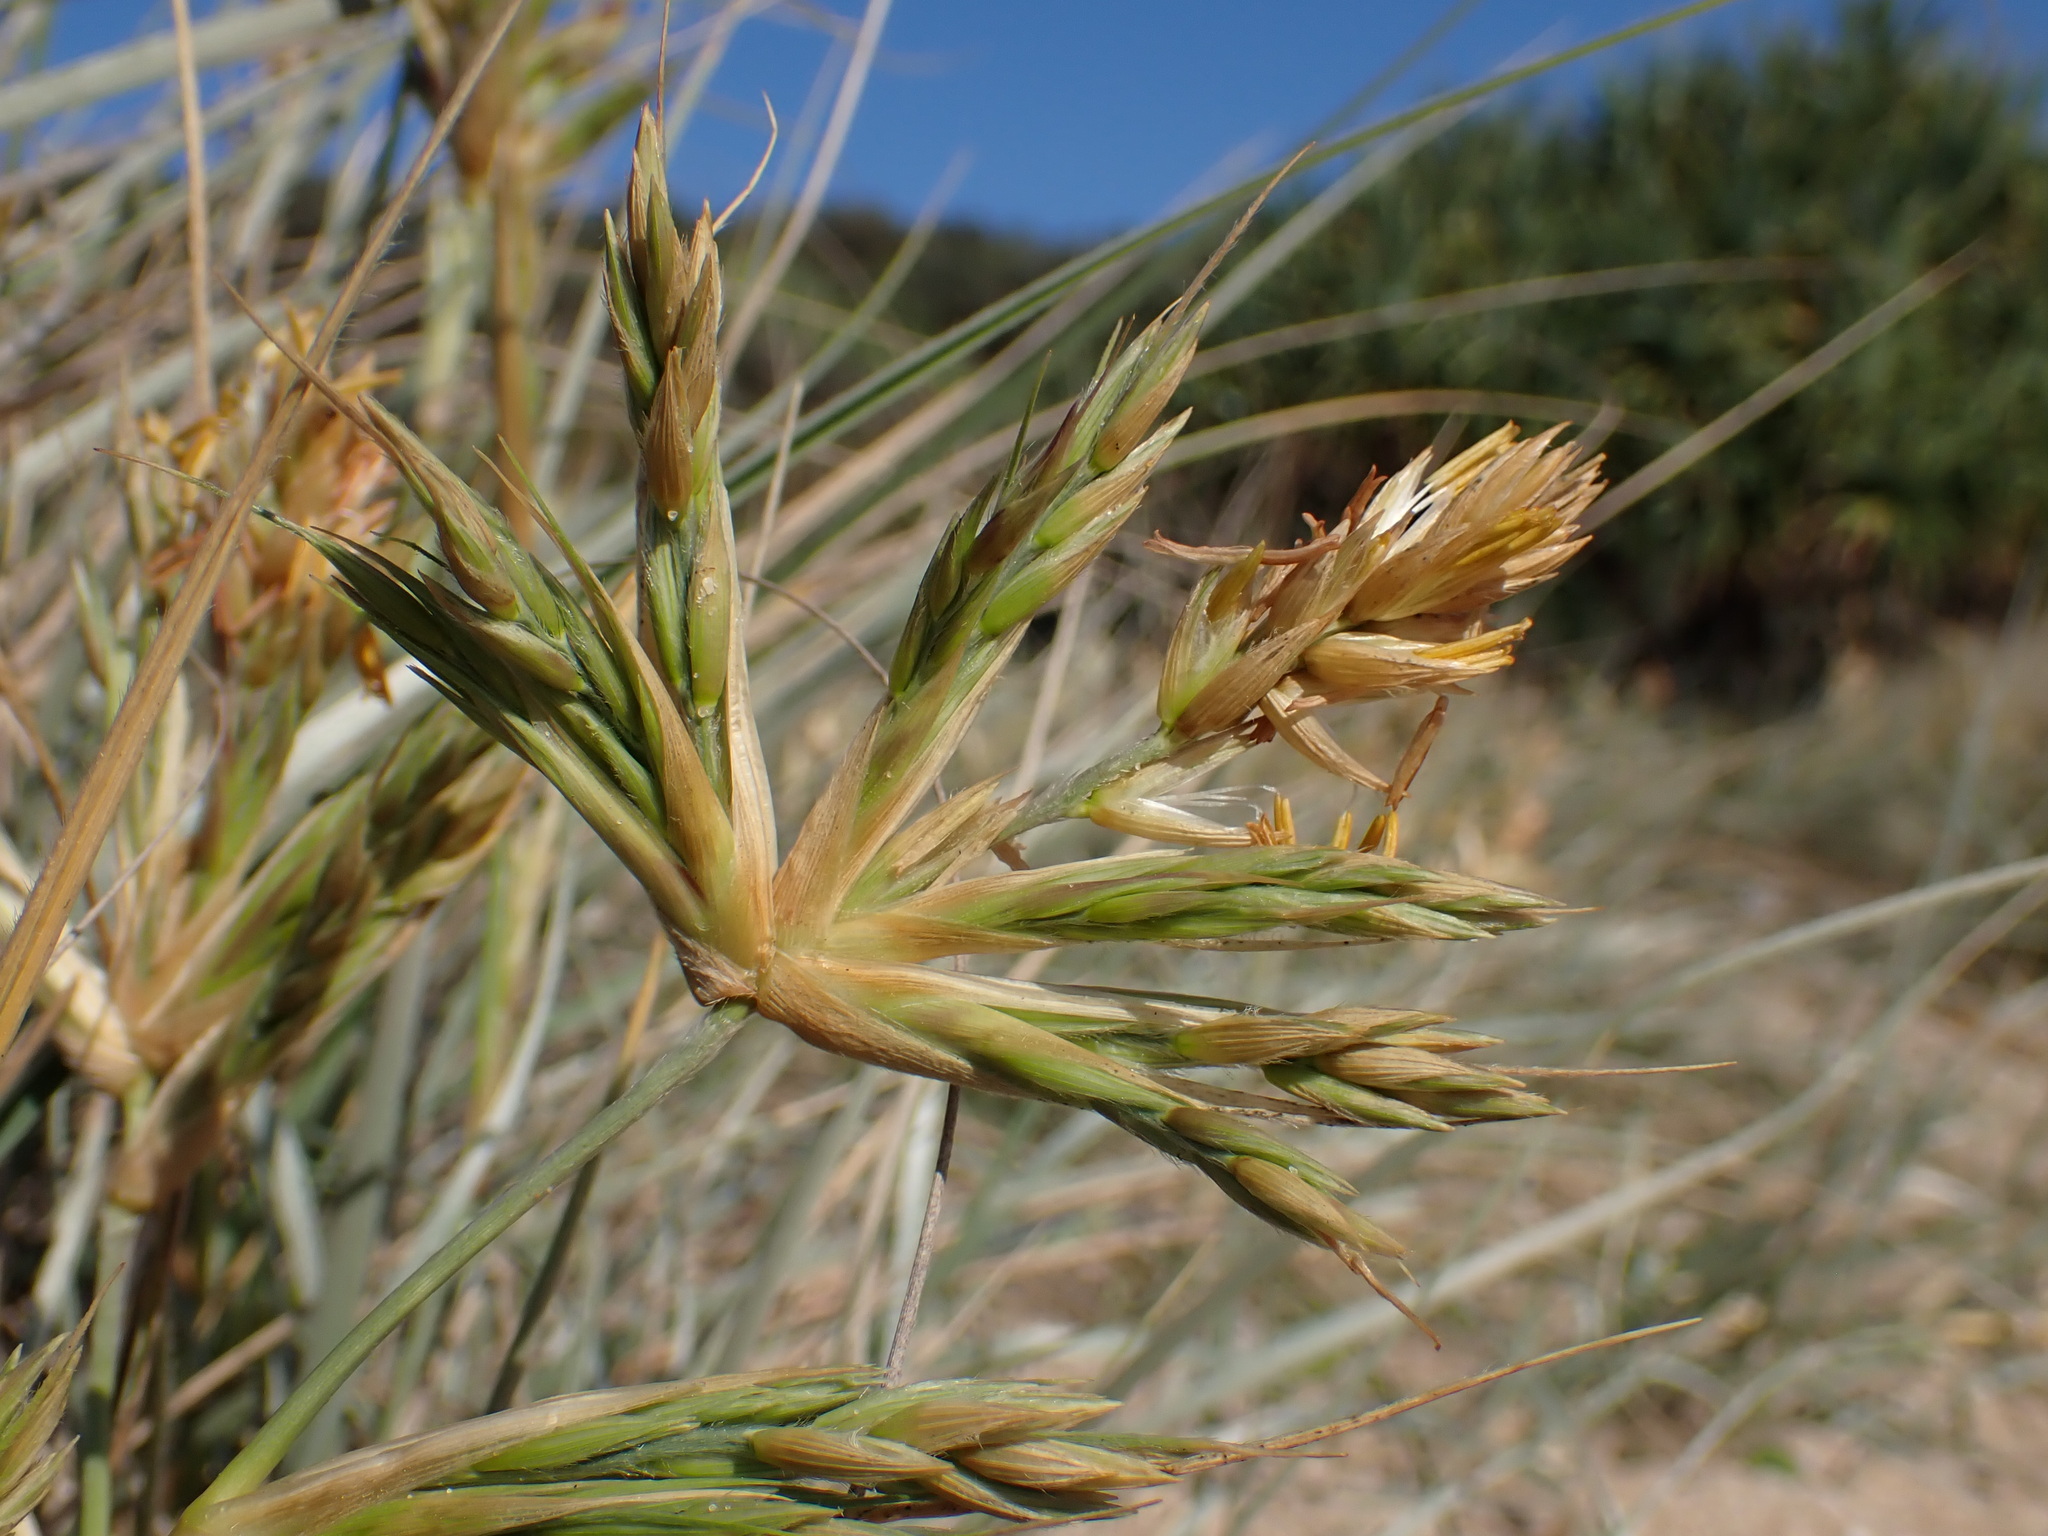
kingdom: Plantae
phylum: Tracheophyta
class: Liliopsida
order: Poales
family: Poaceae
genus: Spinifex
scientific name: Spinifex sericeus
